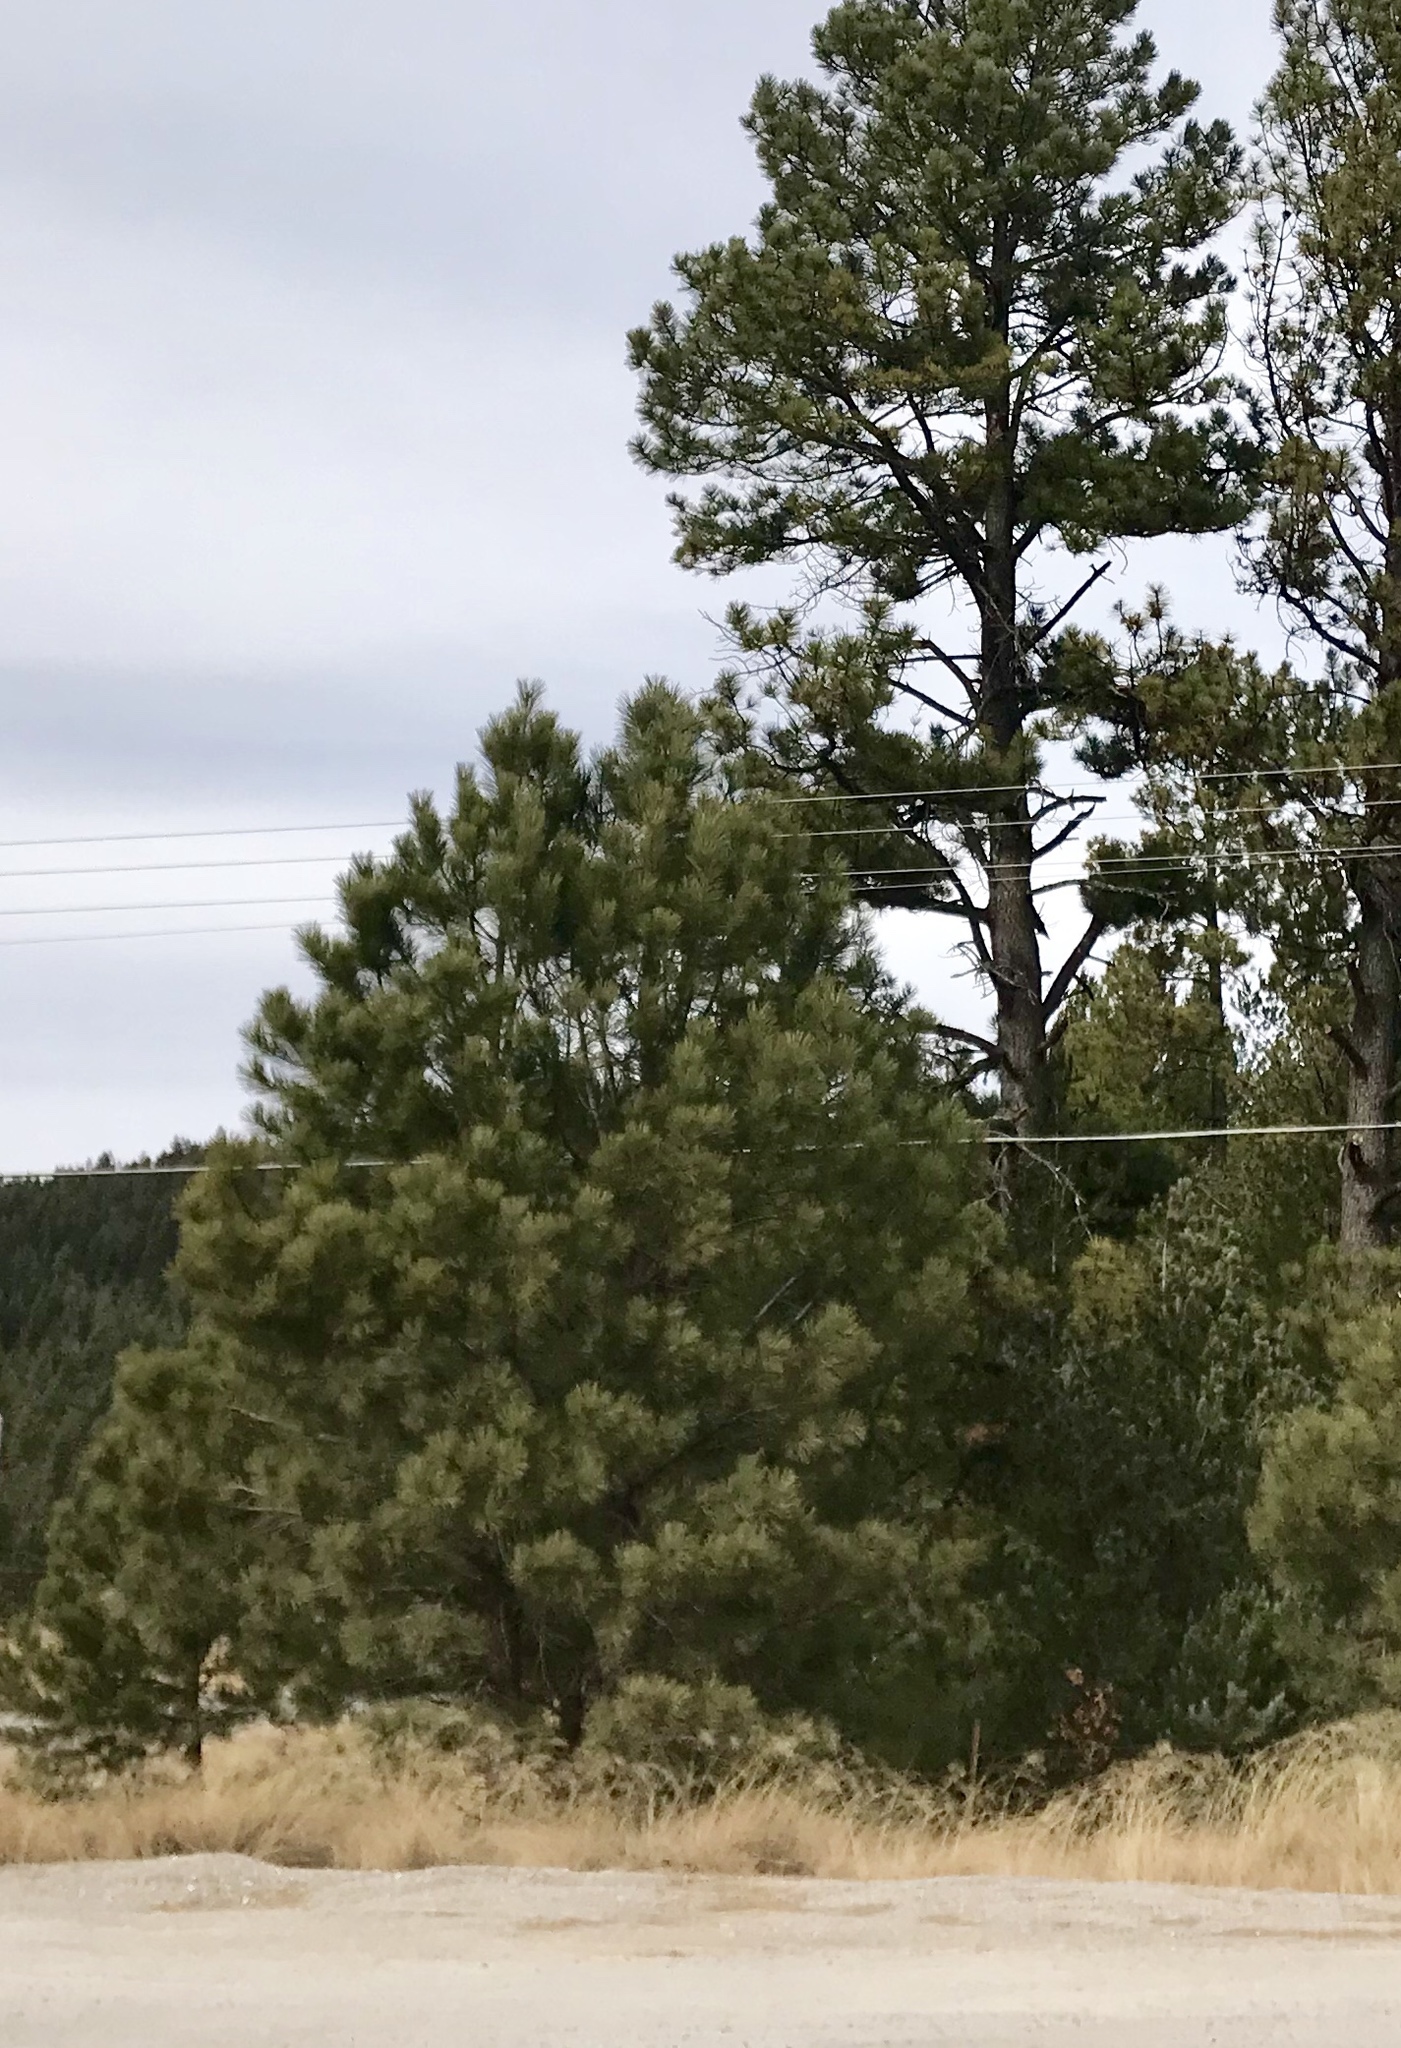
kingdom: Plantae
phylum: Tracheophyta
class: Pinopsida
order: Pinales
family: Pinaceae
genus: Pinus
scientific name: Pinus ponderosa
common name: Western yellow-pine
